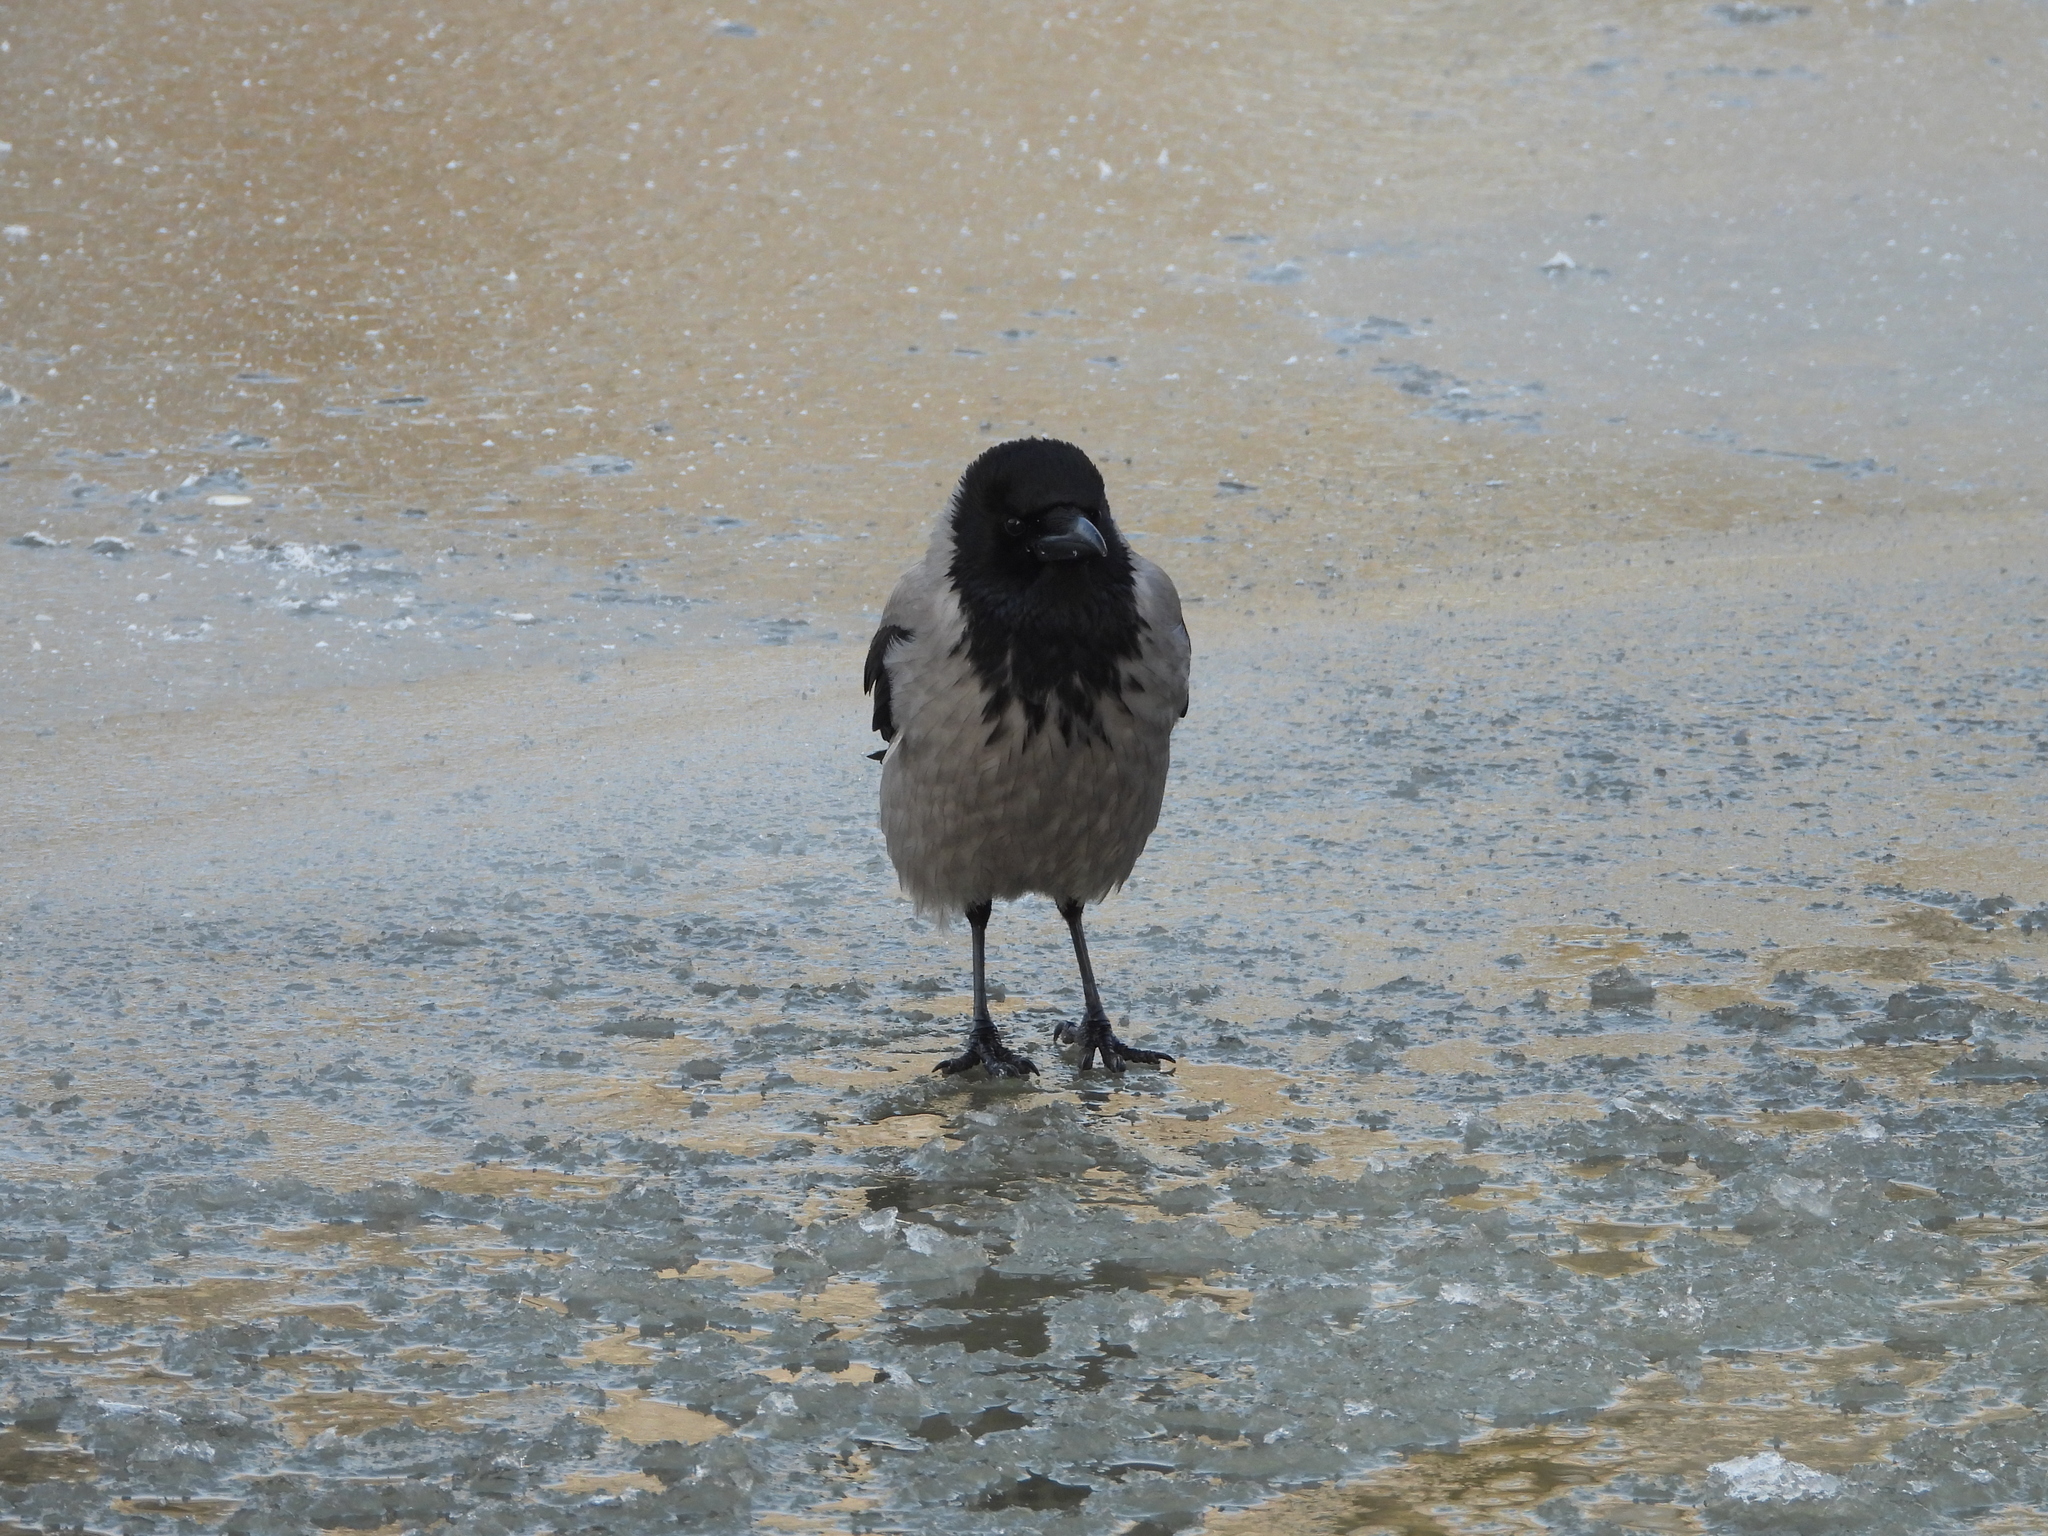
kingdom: Animalia
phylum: Chordata
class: Aves
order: Passeriformes
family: Corvidae
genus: Corvus
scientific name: Corvus cornix
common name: Hooded crow
